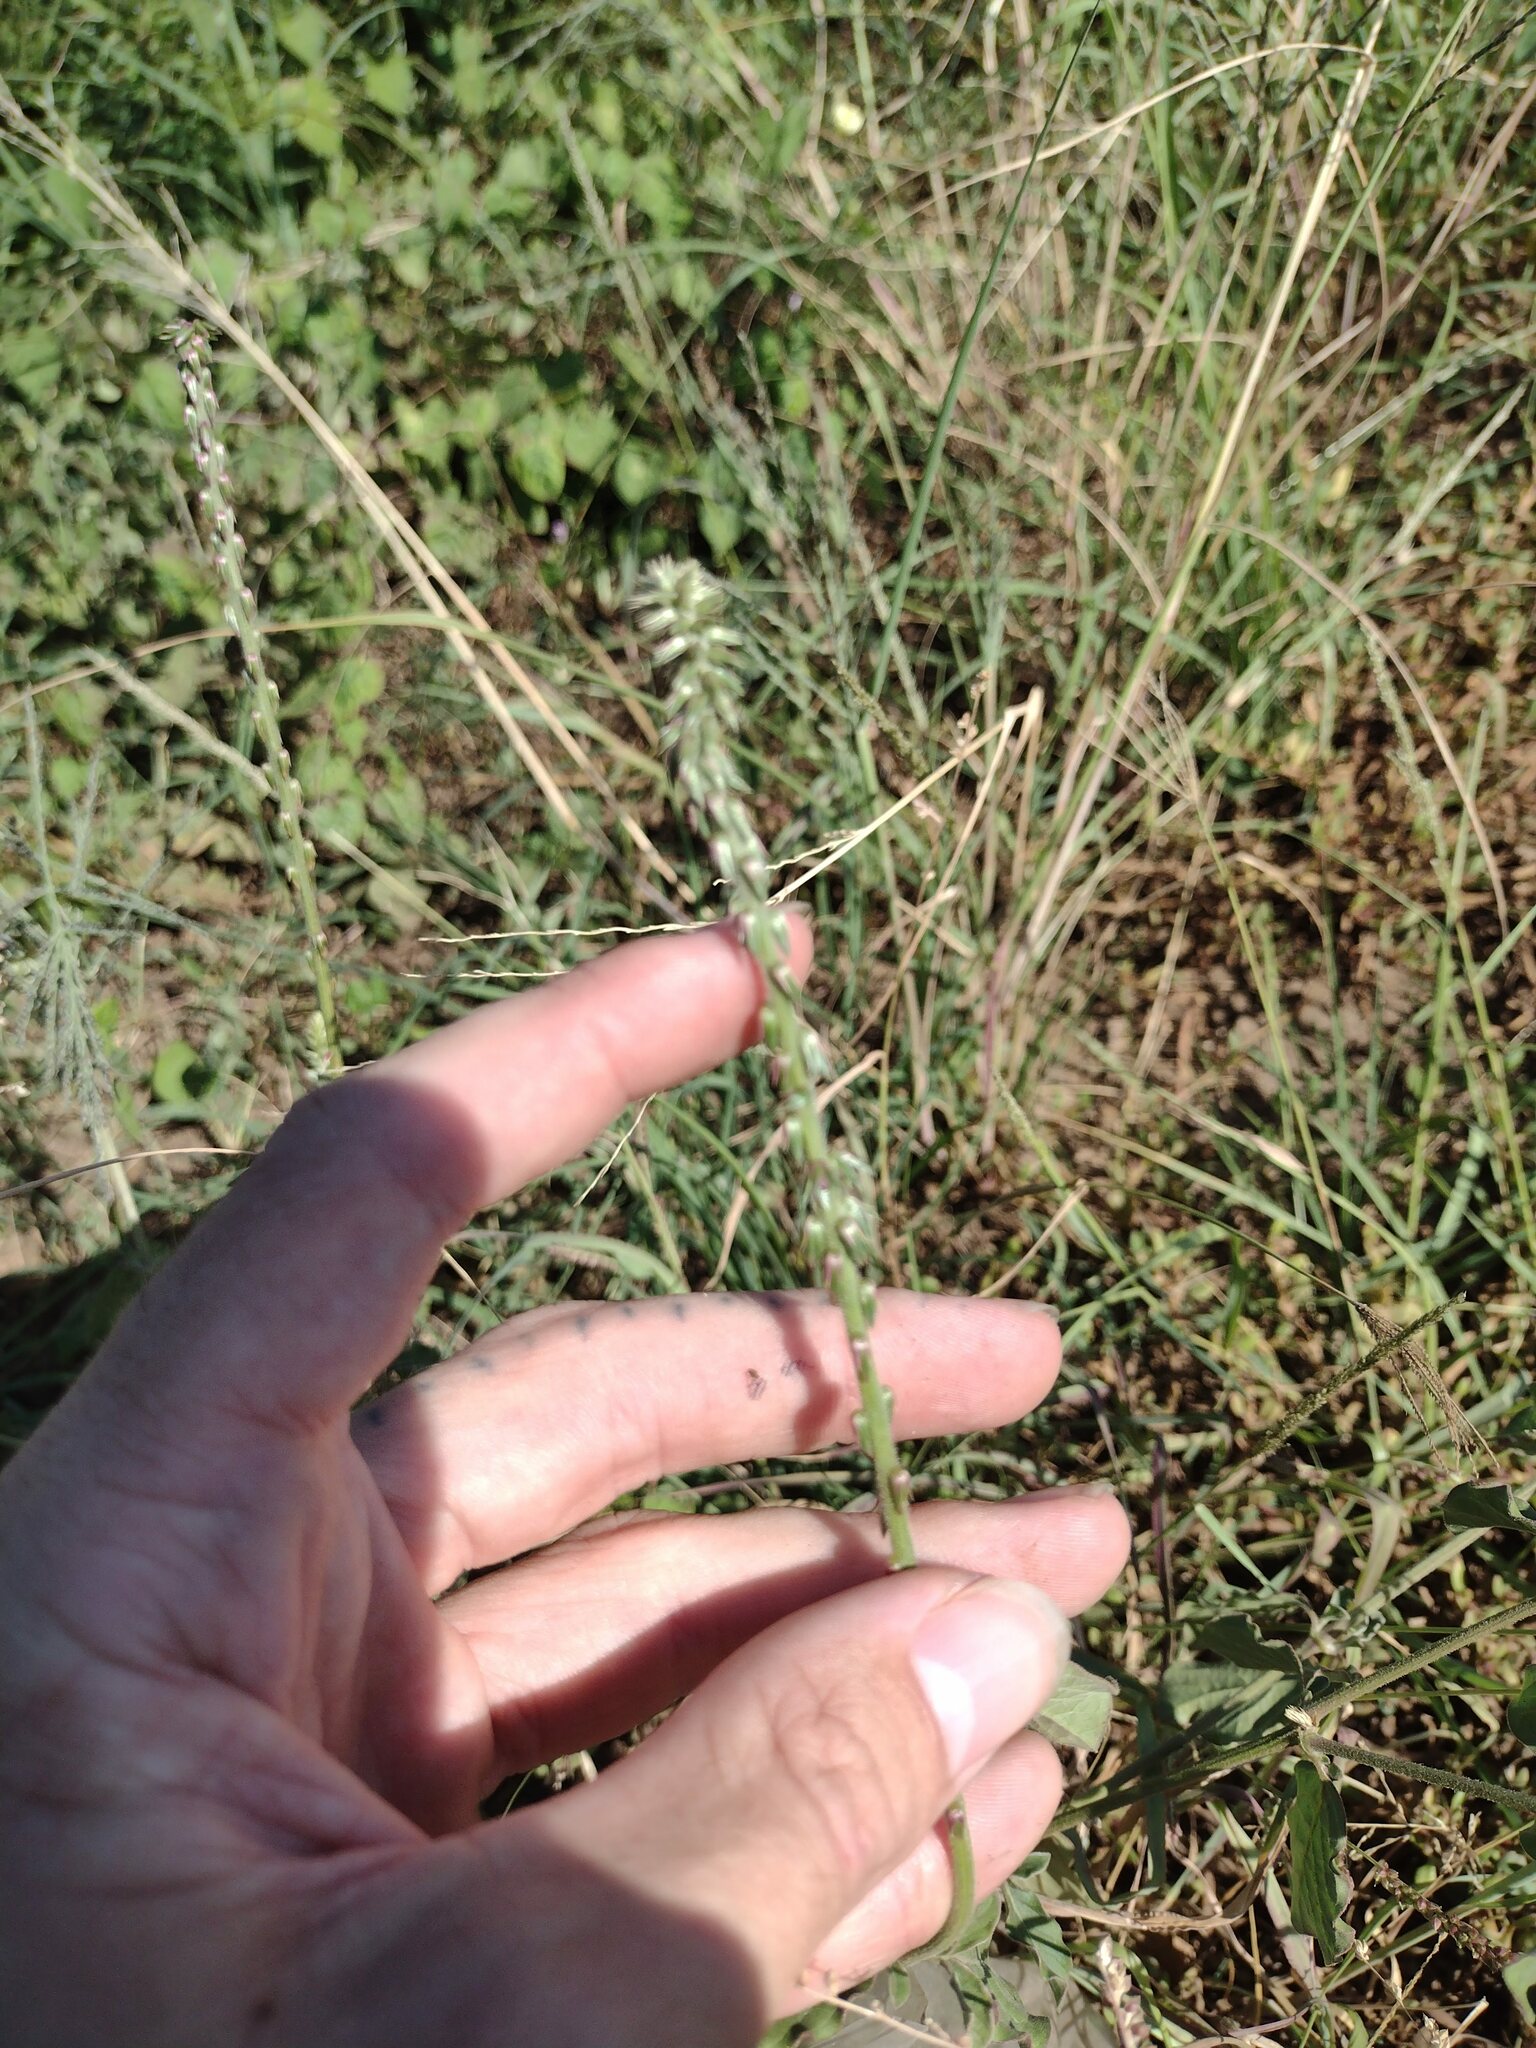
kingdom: Plantae
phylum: Tracheophyta
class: Magnoliopsida
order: Caryophyllales
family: Amaranthaceae
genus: Achyranthes
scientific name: Achyranthes aspera
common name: Devil's horsewhip
